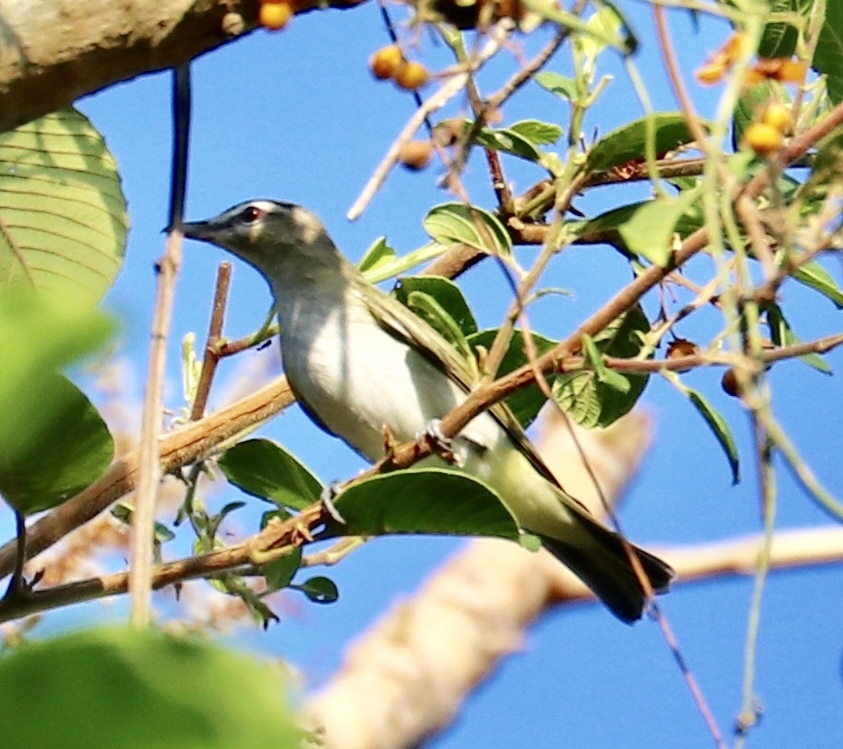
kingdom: Animalia
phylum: Chordata
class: Aves
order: Passeriformes
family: Vireonidae
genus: Vireo
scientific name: Vireo olivaceus
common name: Red-eyed vireo
